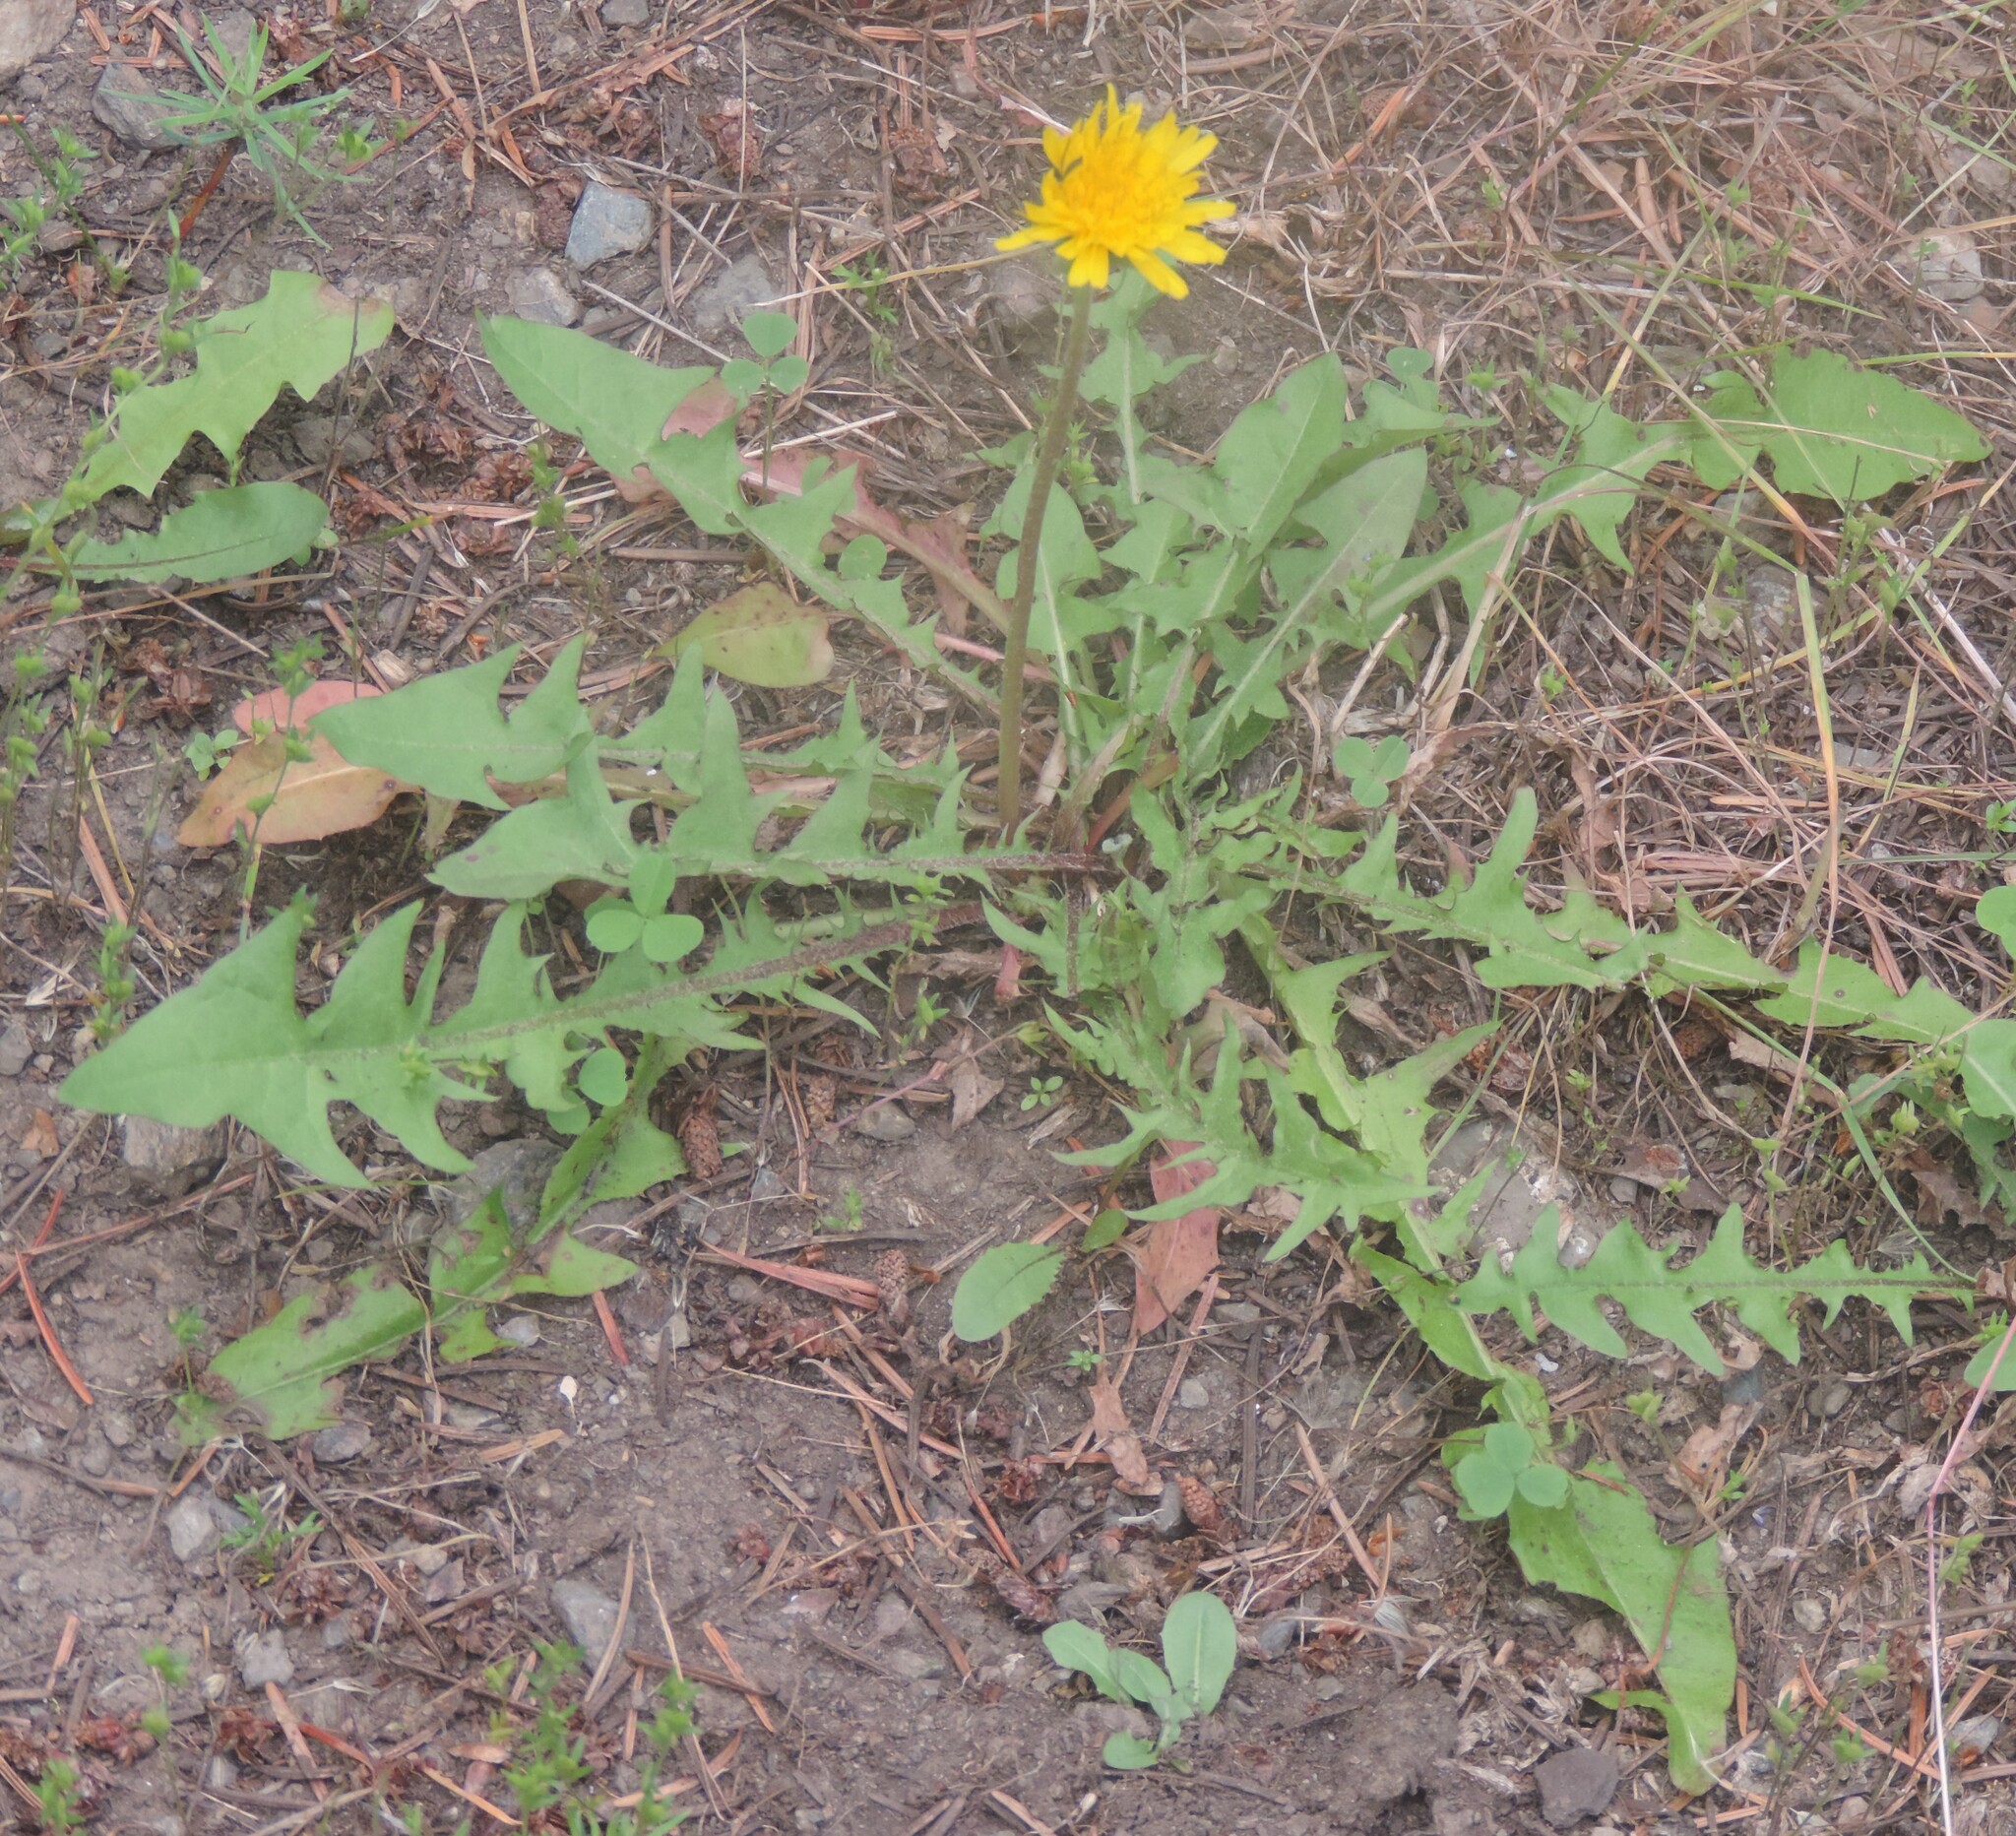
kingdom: Plantae
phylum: Tracheophyta
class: Magnoliopsida
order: Asterales
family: Asteraceae
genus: Taraxacum
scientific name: Taraxacum
